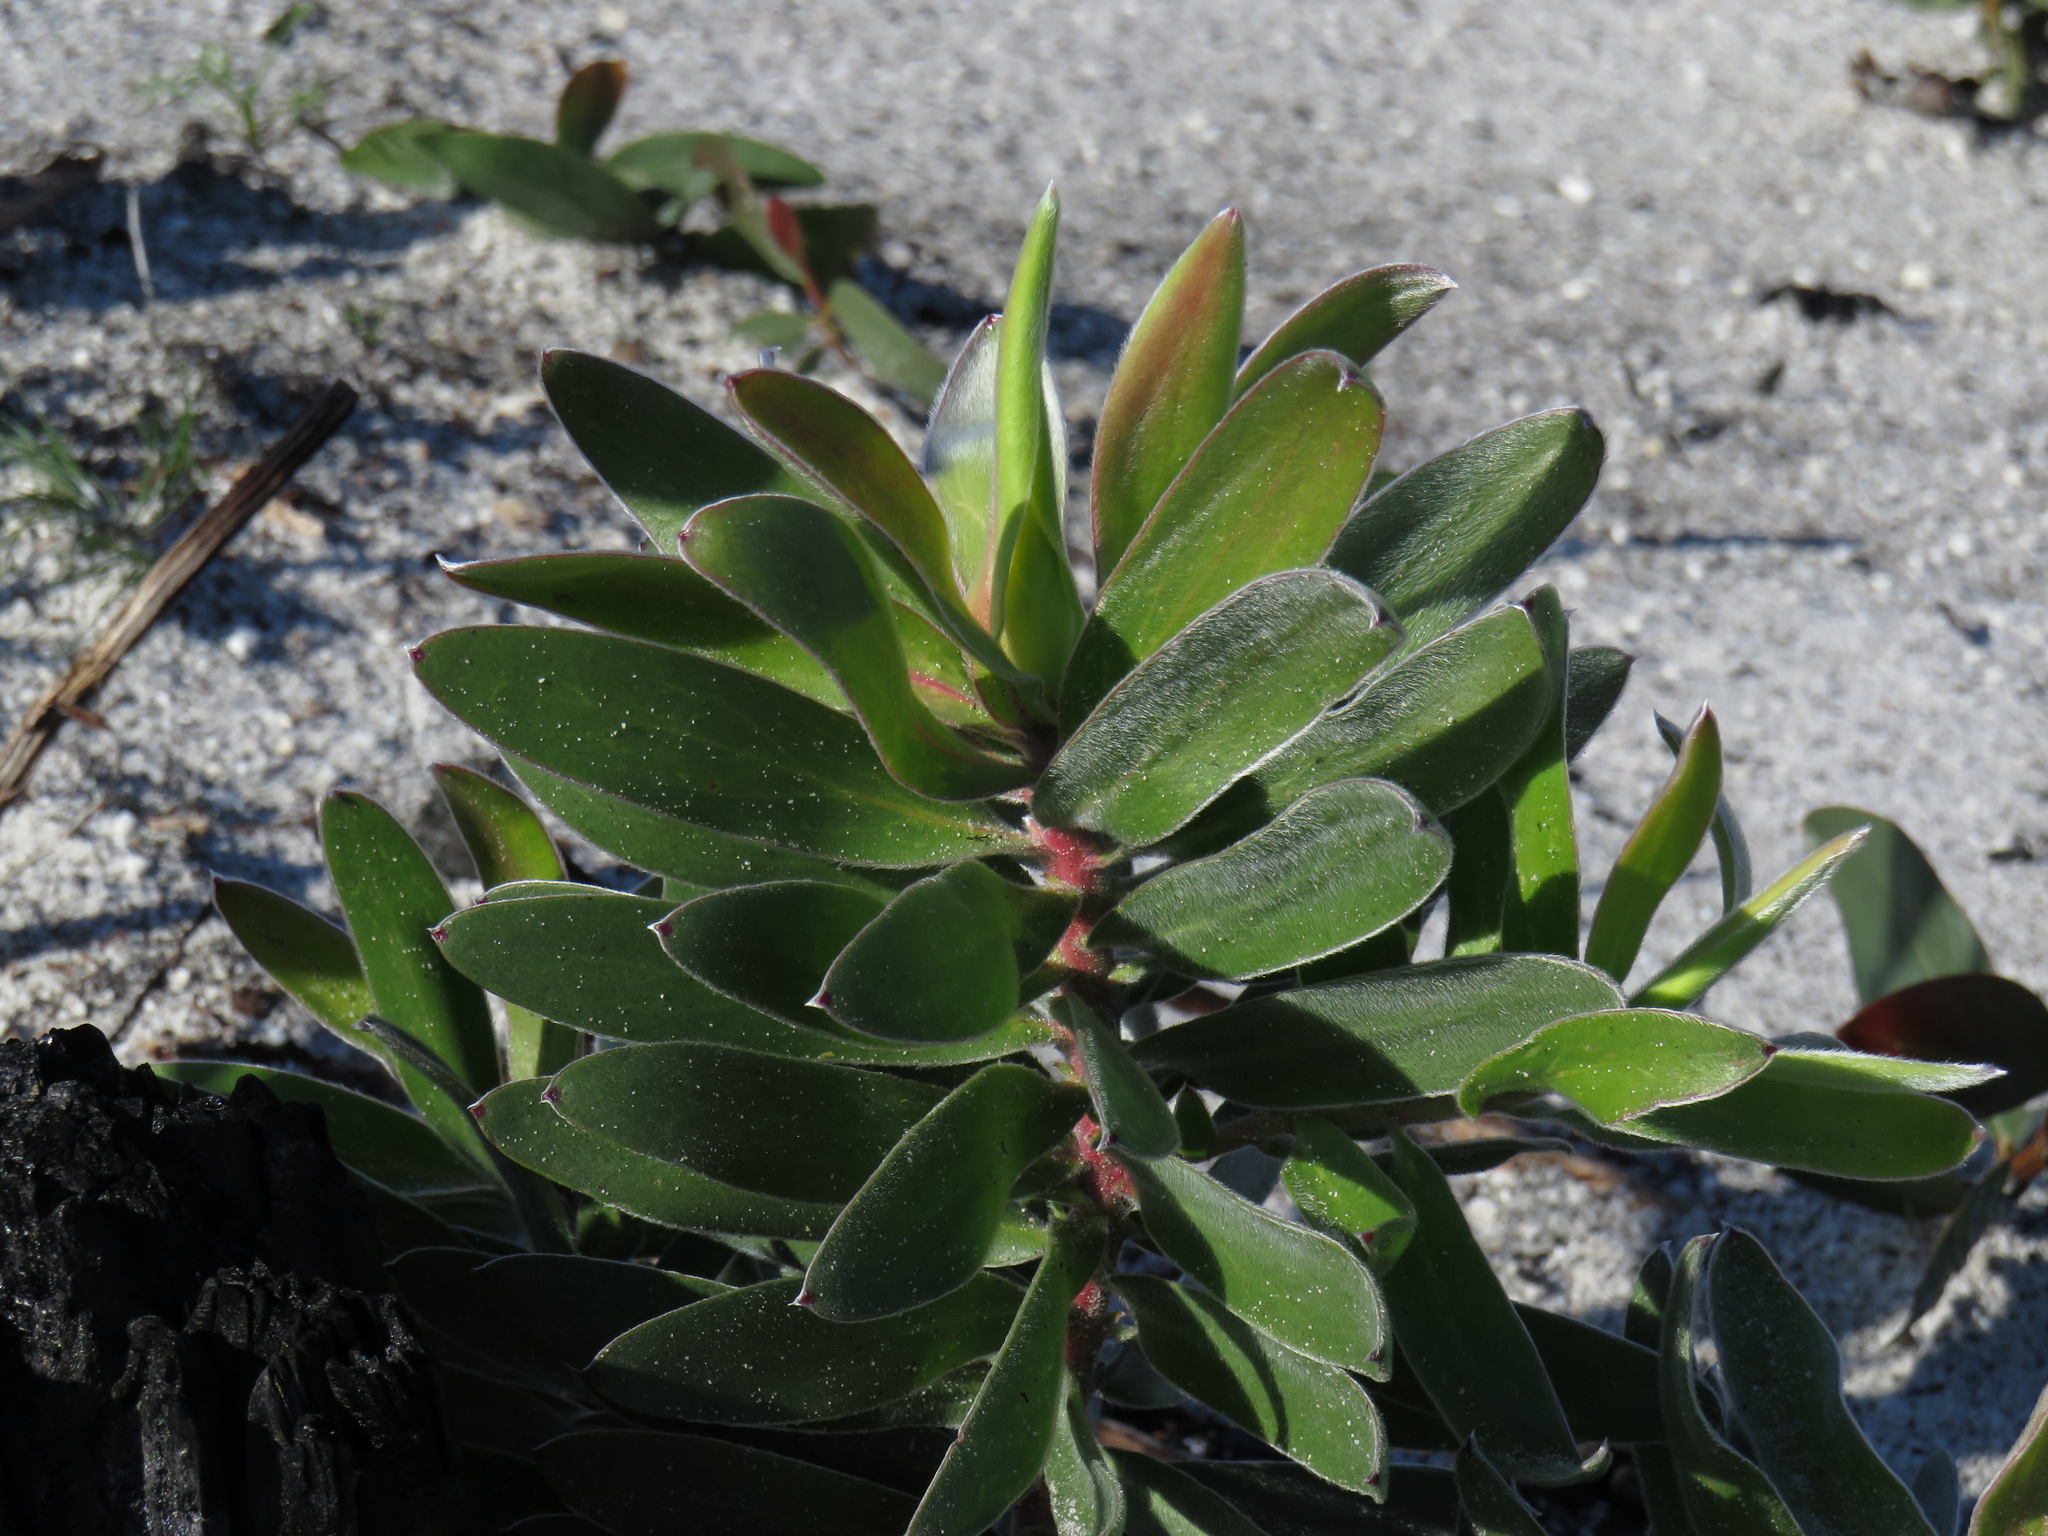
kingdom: Plantae
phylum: Tracheophyta
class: Magnoliopsida
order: Proteales
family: Proteaceae
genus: Leucadendron
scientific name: Leucadendron laureolum
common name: Golden sunshinebush
